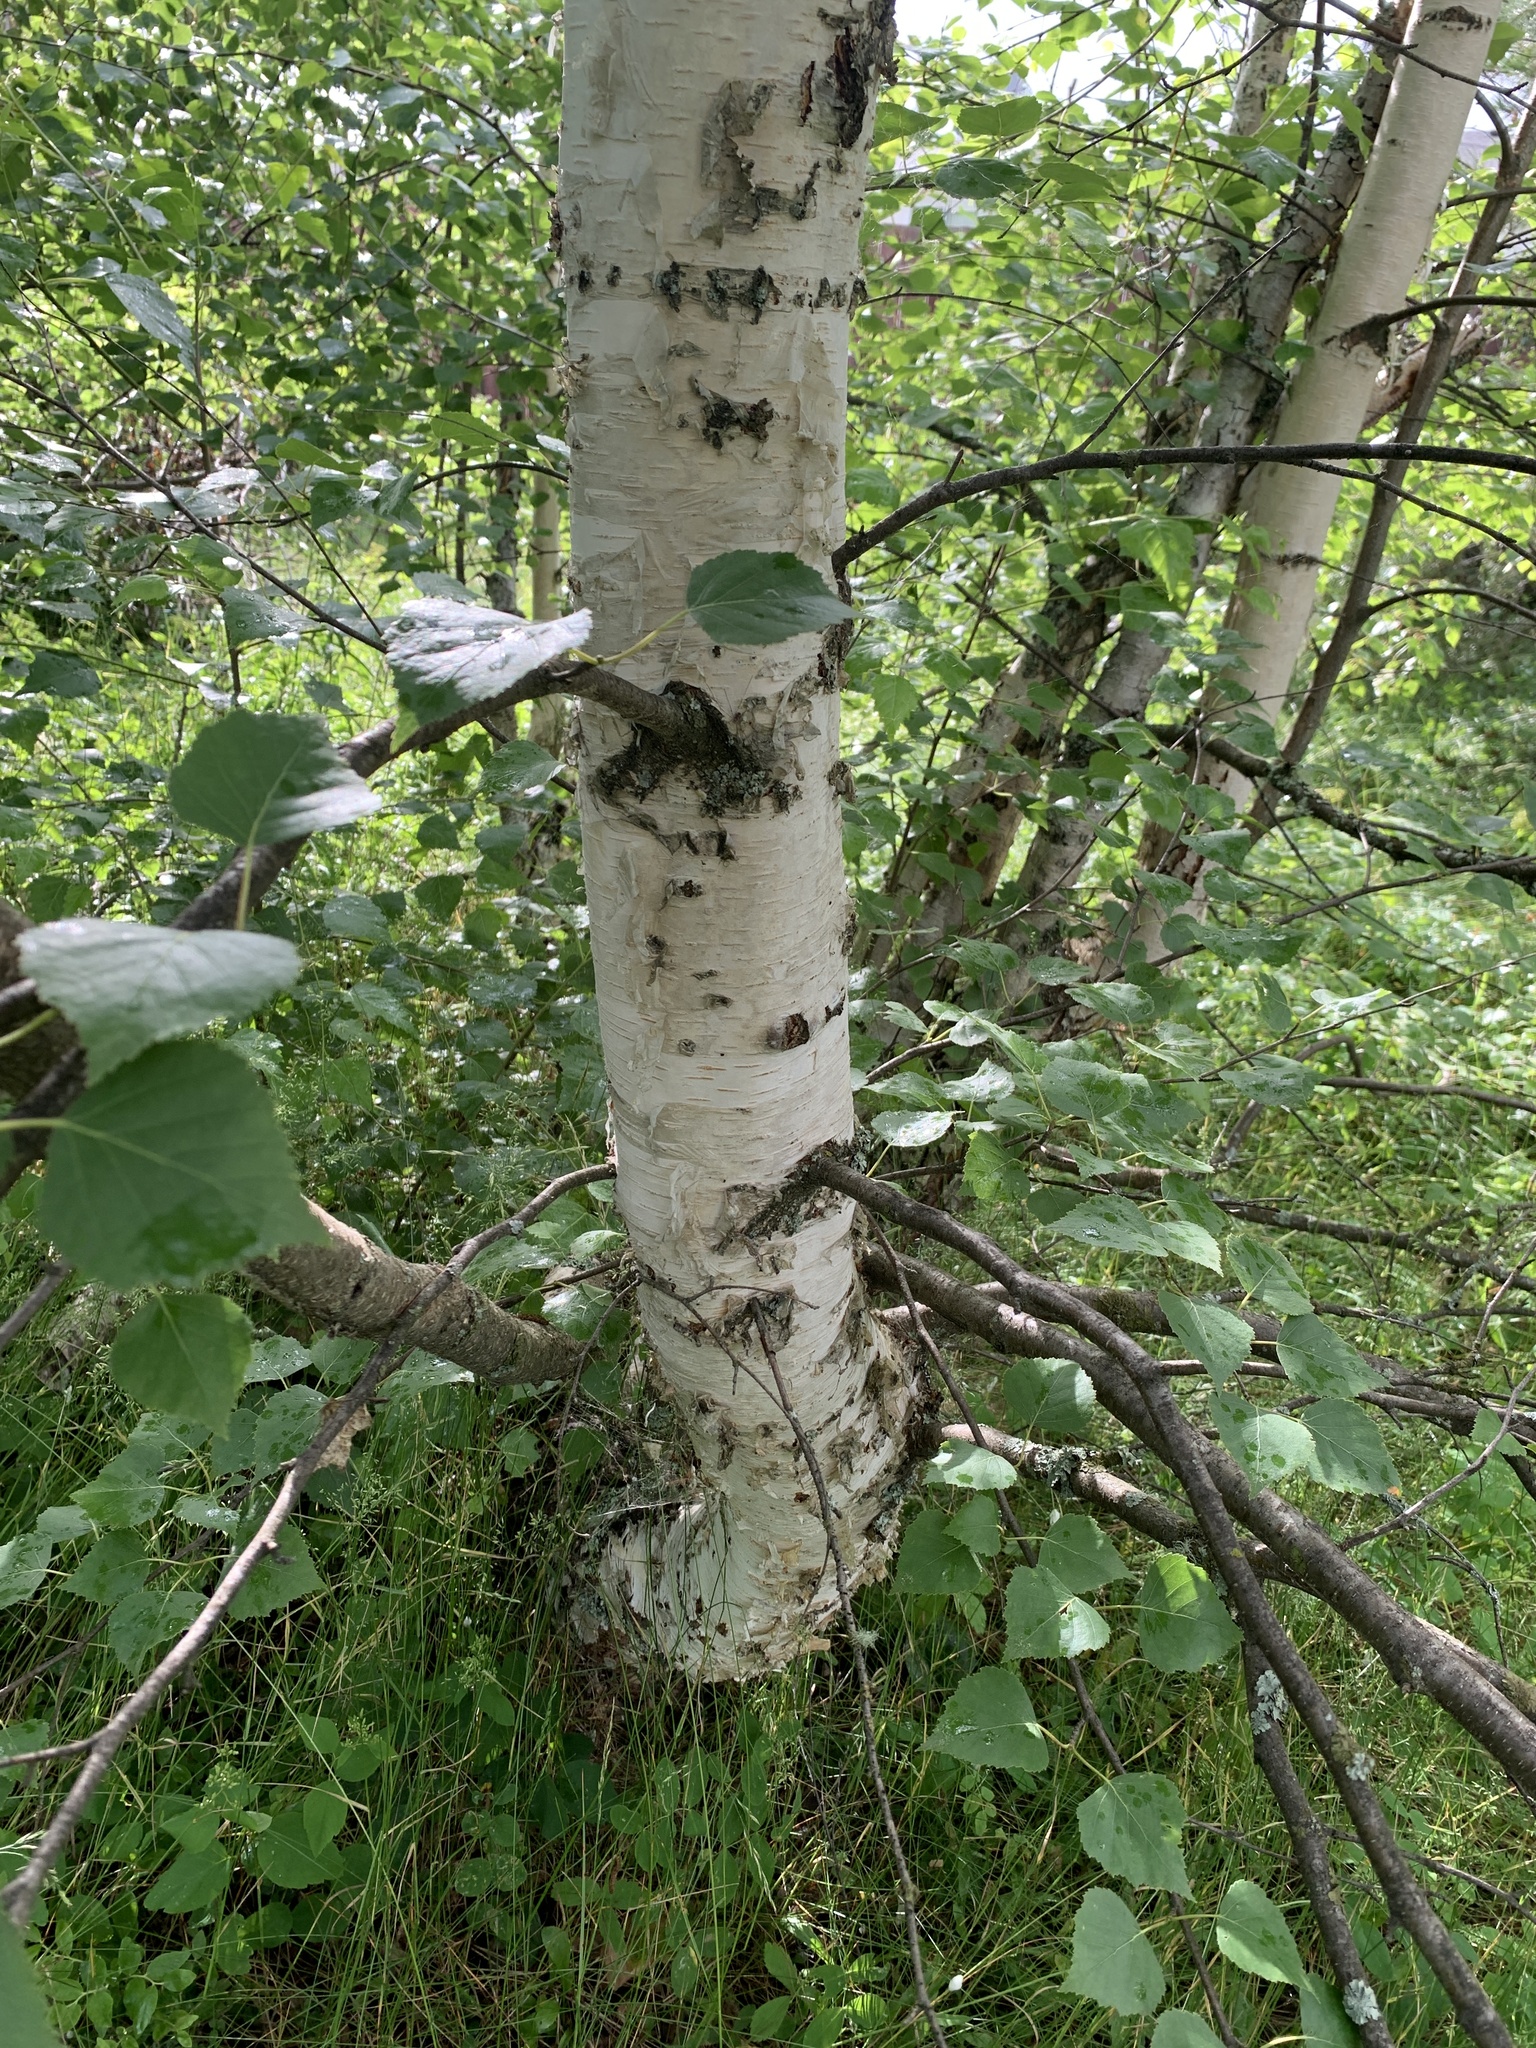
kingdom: Plantae
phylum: Tracheophyta
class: Magnoliopsida
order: Fagales
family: Betulaceae
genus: Betula
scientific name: Betula papyrifera
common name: Paper birch
